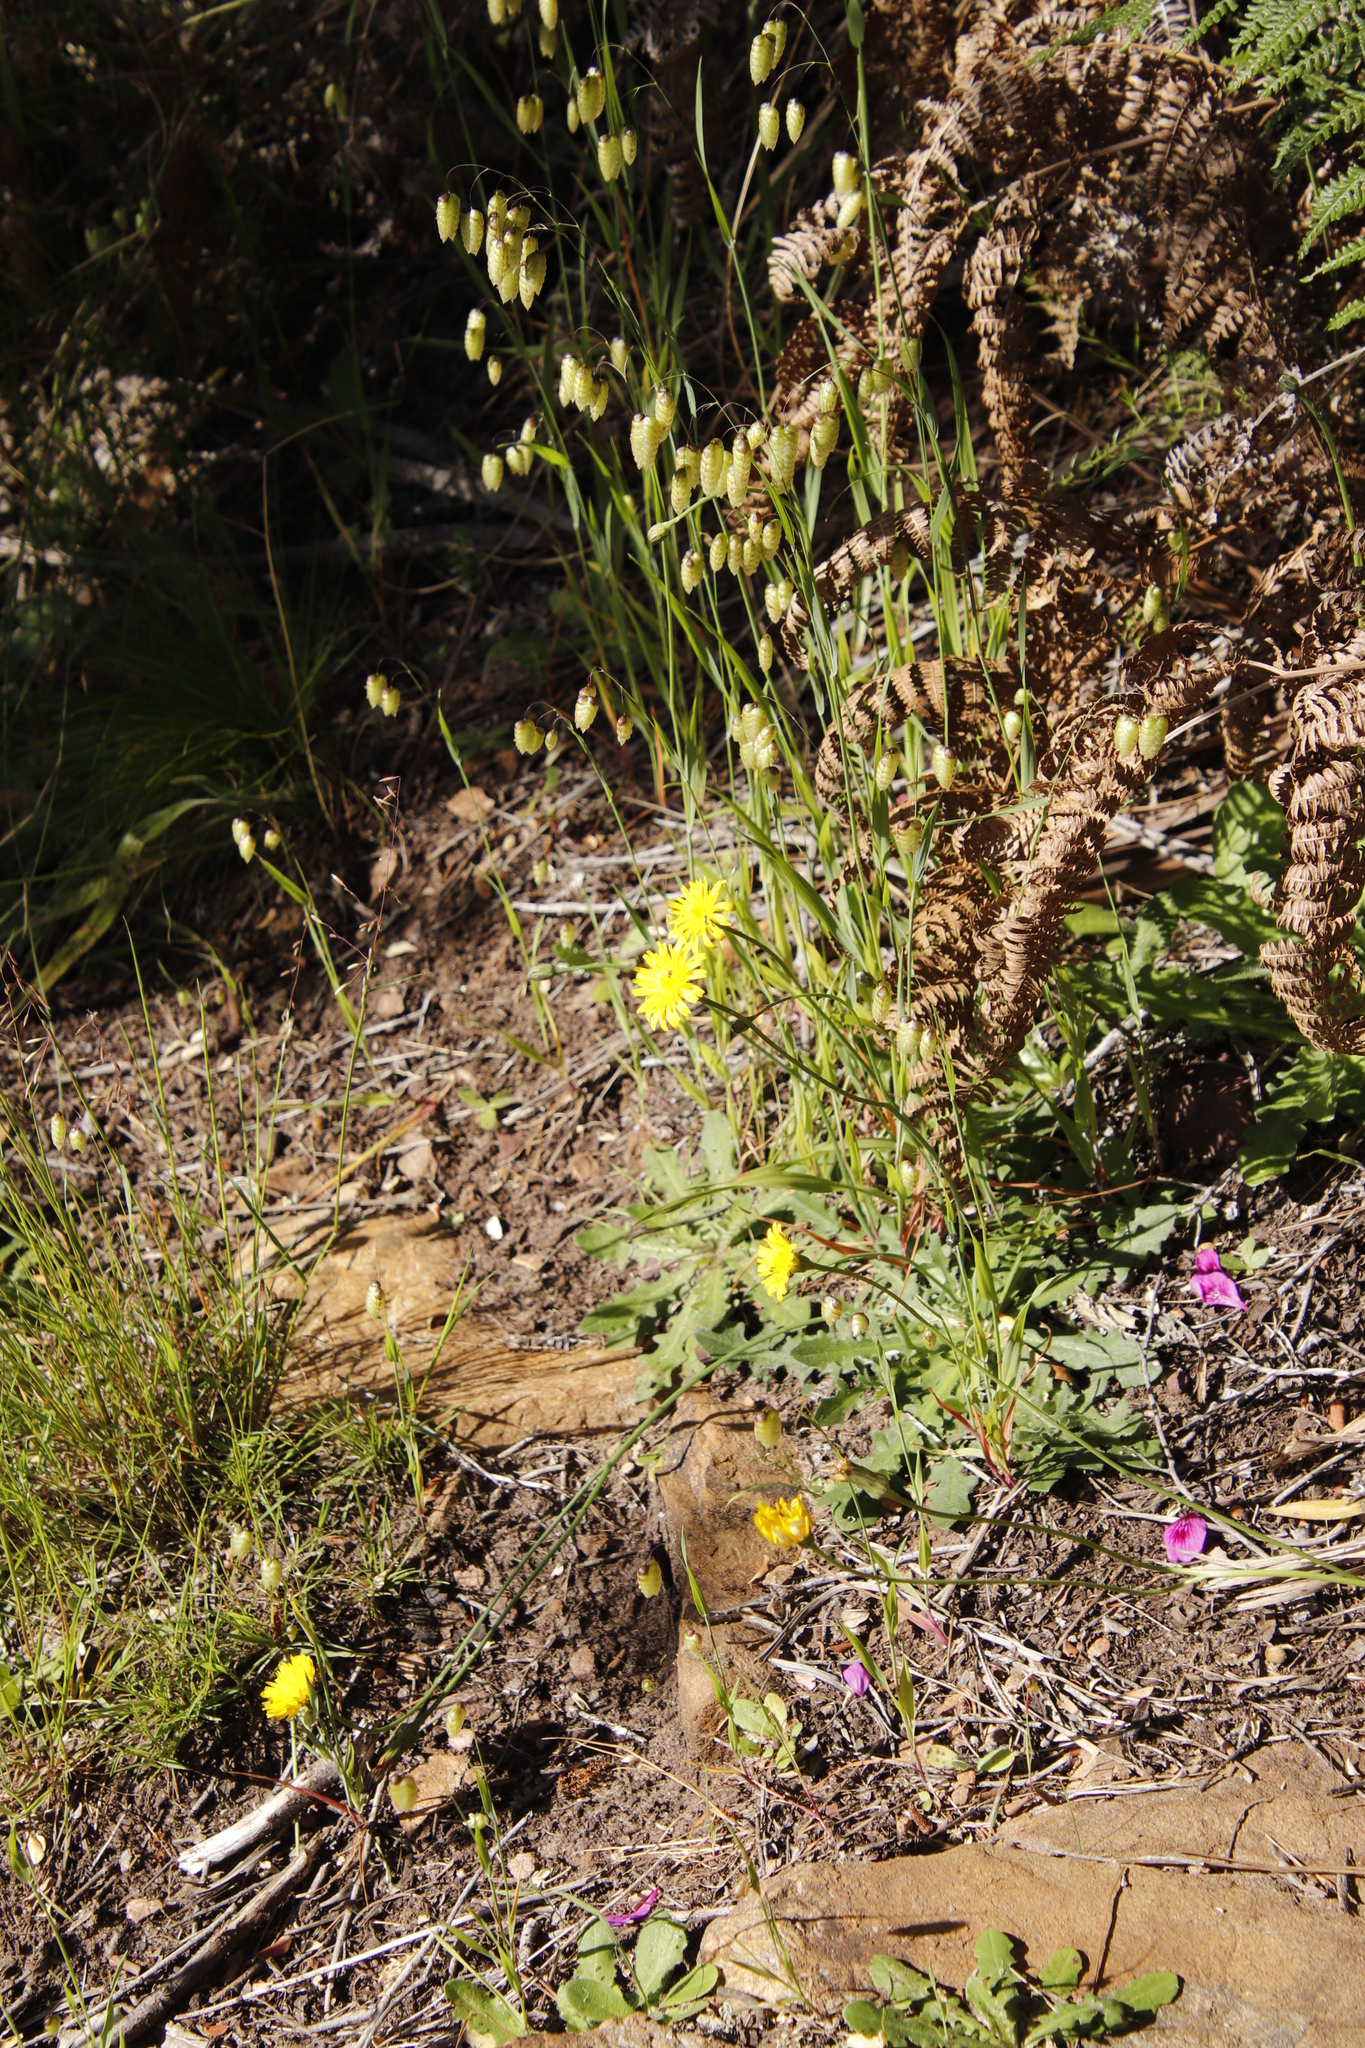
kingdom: Plantae
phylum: Tracheophyta
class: Magnoliopsida
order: Asterales
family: Asteraceae
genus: Hypochaeris
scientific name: Hypochaeris radicata
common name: Flatweed
